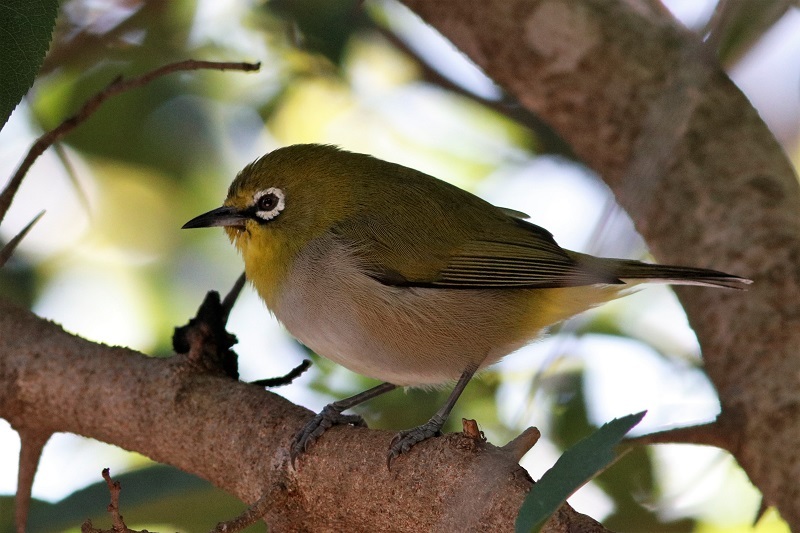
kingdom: Animalia
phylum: Chordata
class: Aves
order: Passeriformes
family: Zosteropidae
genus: Zosterops
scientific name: Zosterops virens
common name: Cape white-eye
